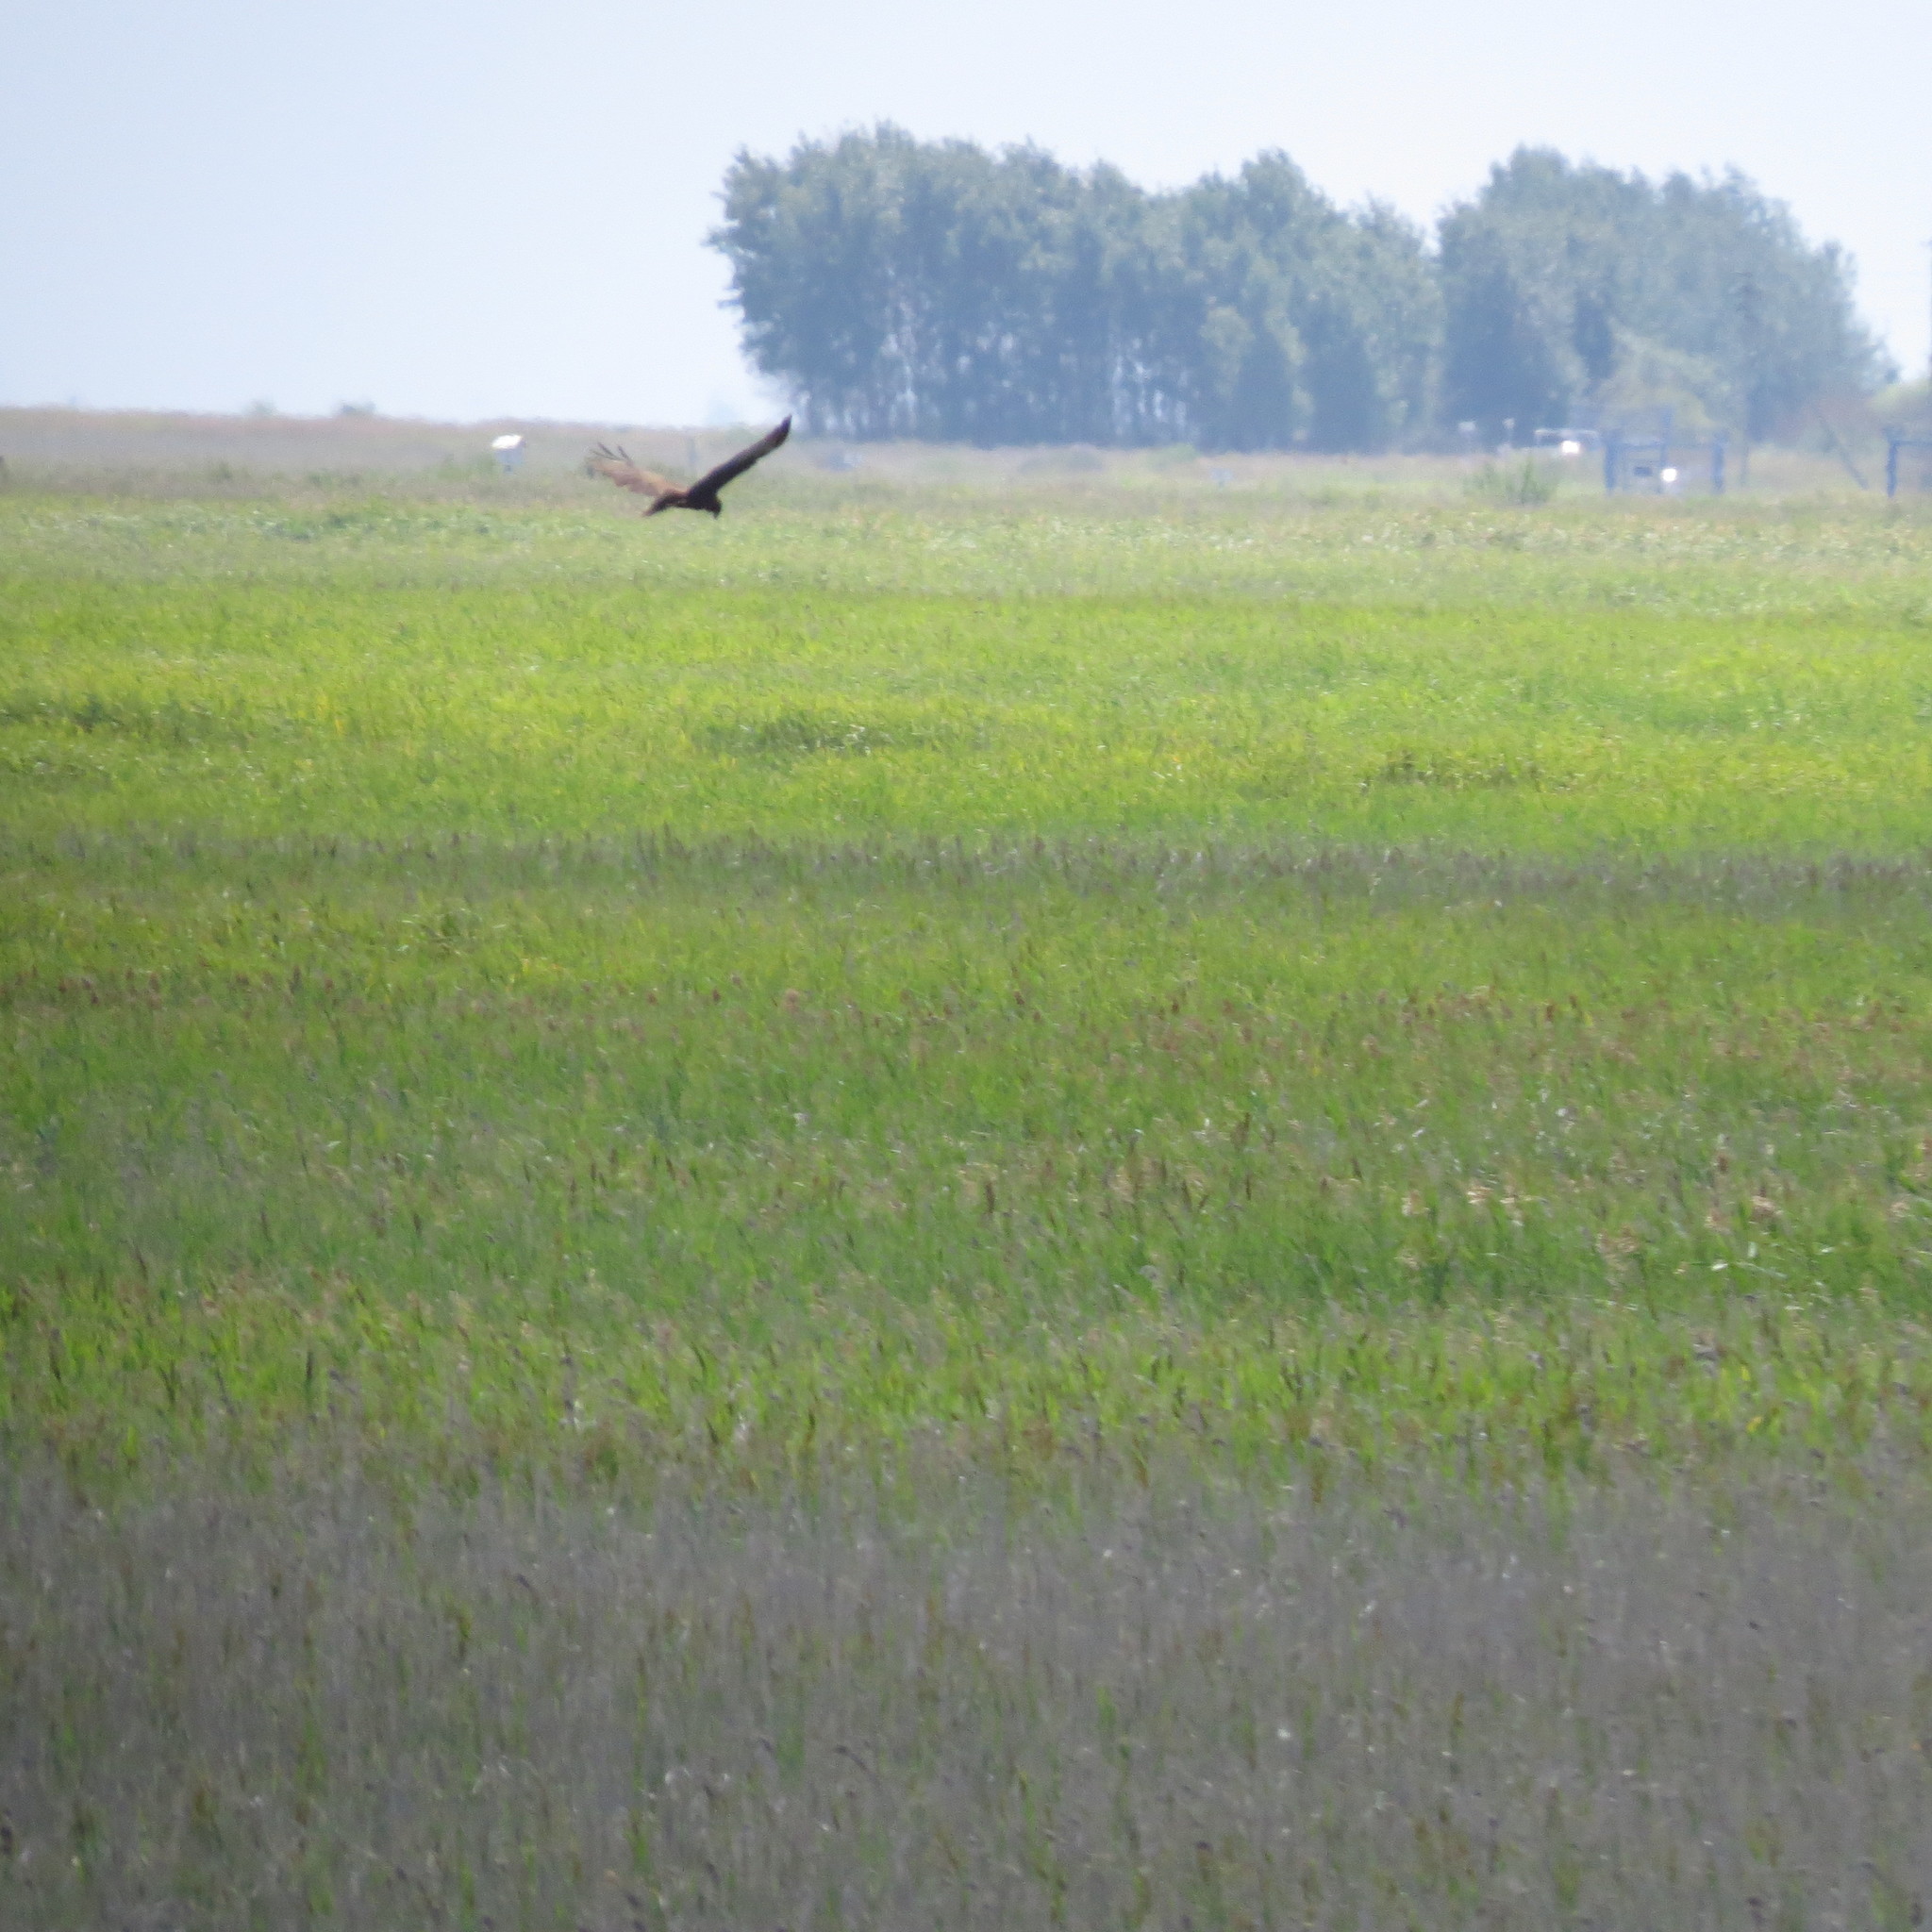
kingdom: Animalia
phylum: Chordata
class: Aves
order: Accipitriformes
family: Accipitridae
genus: Circus
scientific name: Circus aeruginosus
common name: Western marsh harrier
